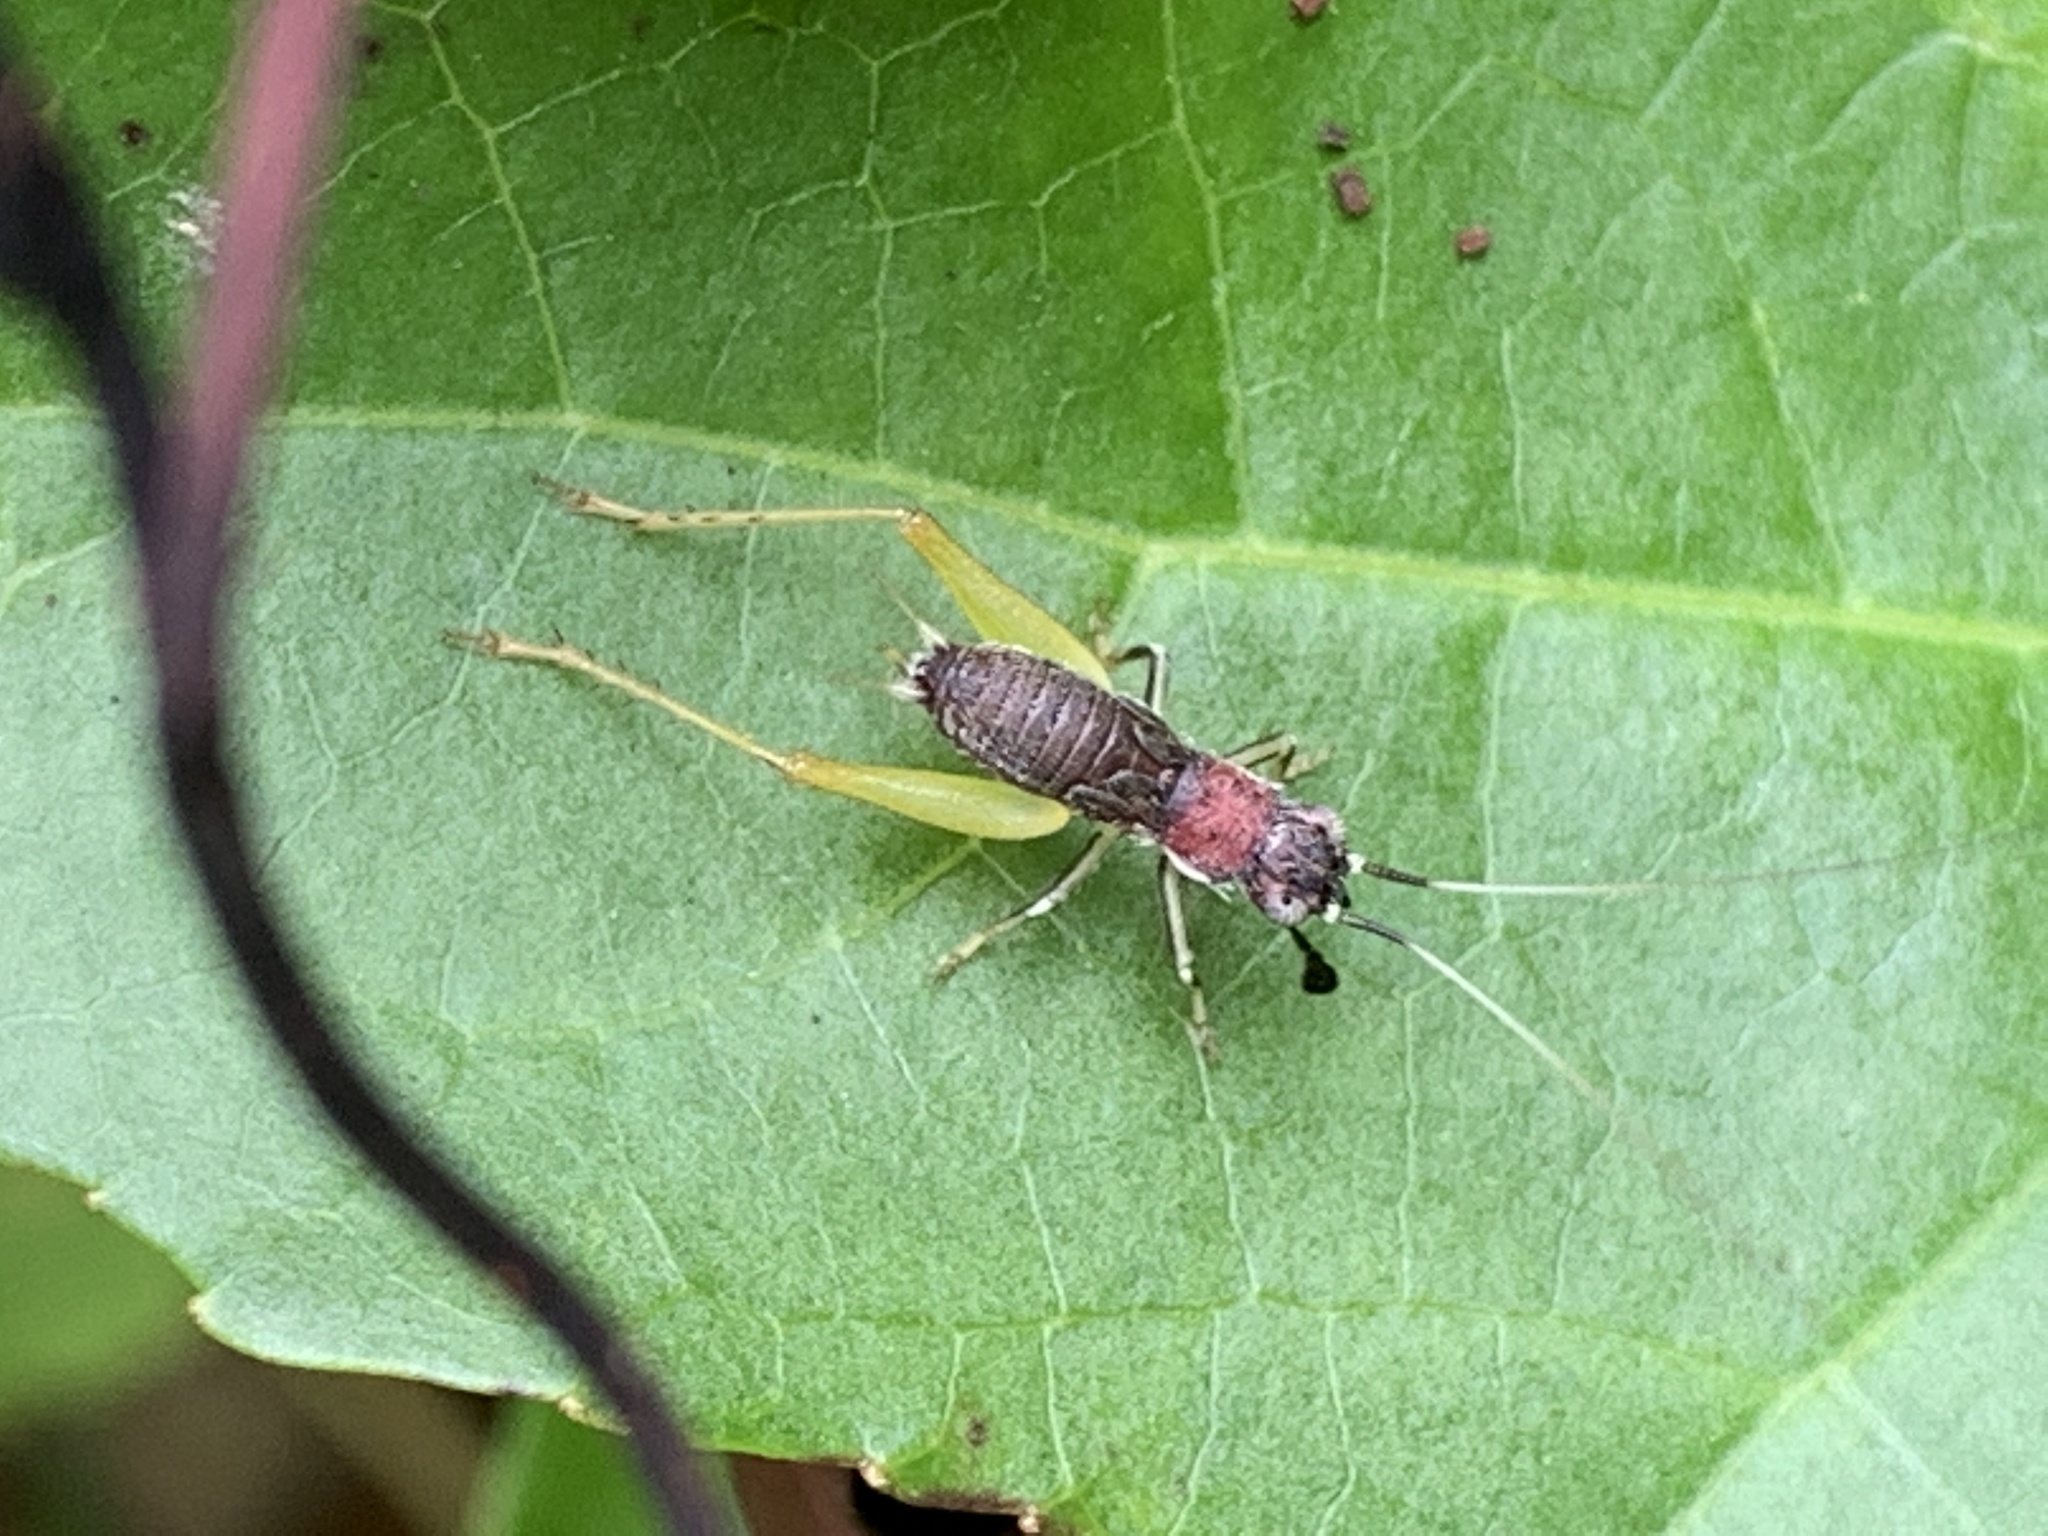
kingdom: Animalia
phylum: Arthropoda
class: Insecta
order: Orthoptera
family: Trigonidiidae
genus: Phyllopalpus
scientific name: Phyllopalpus pulchellus
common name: Handsome trig
